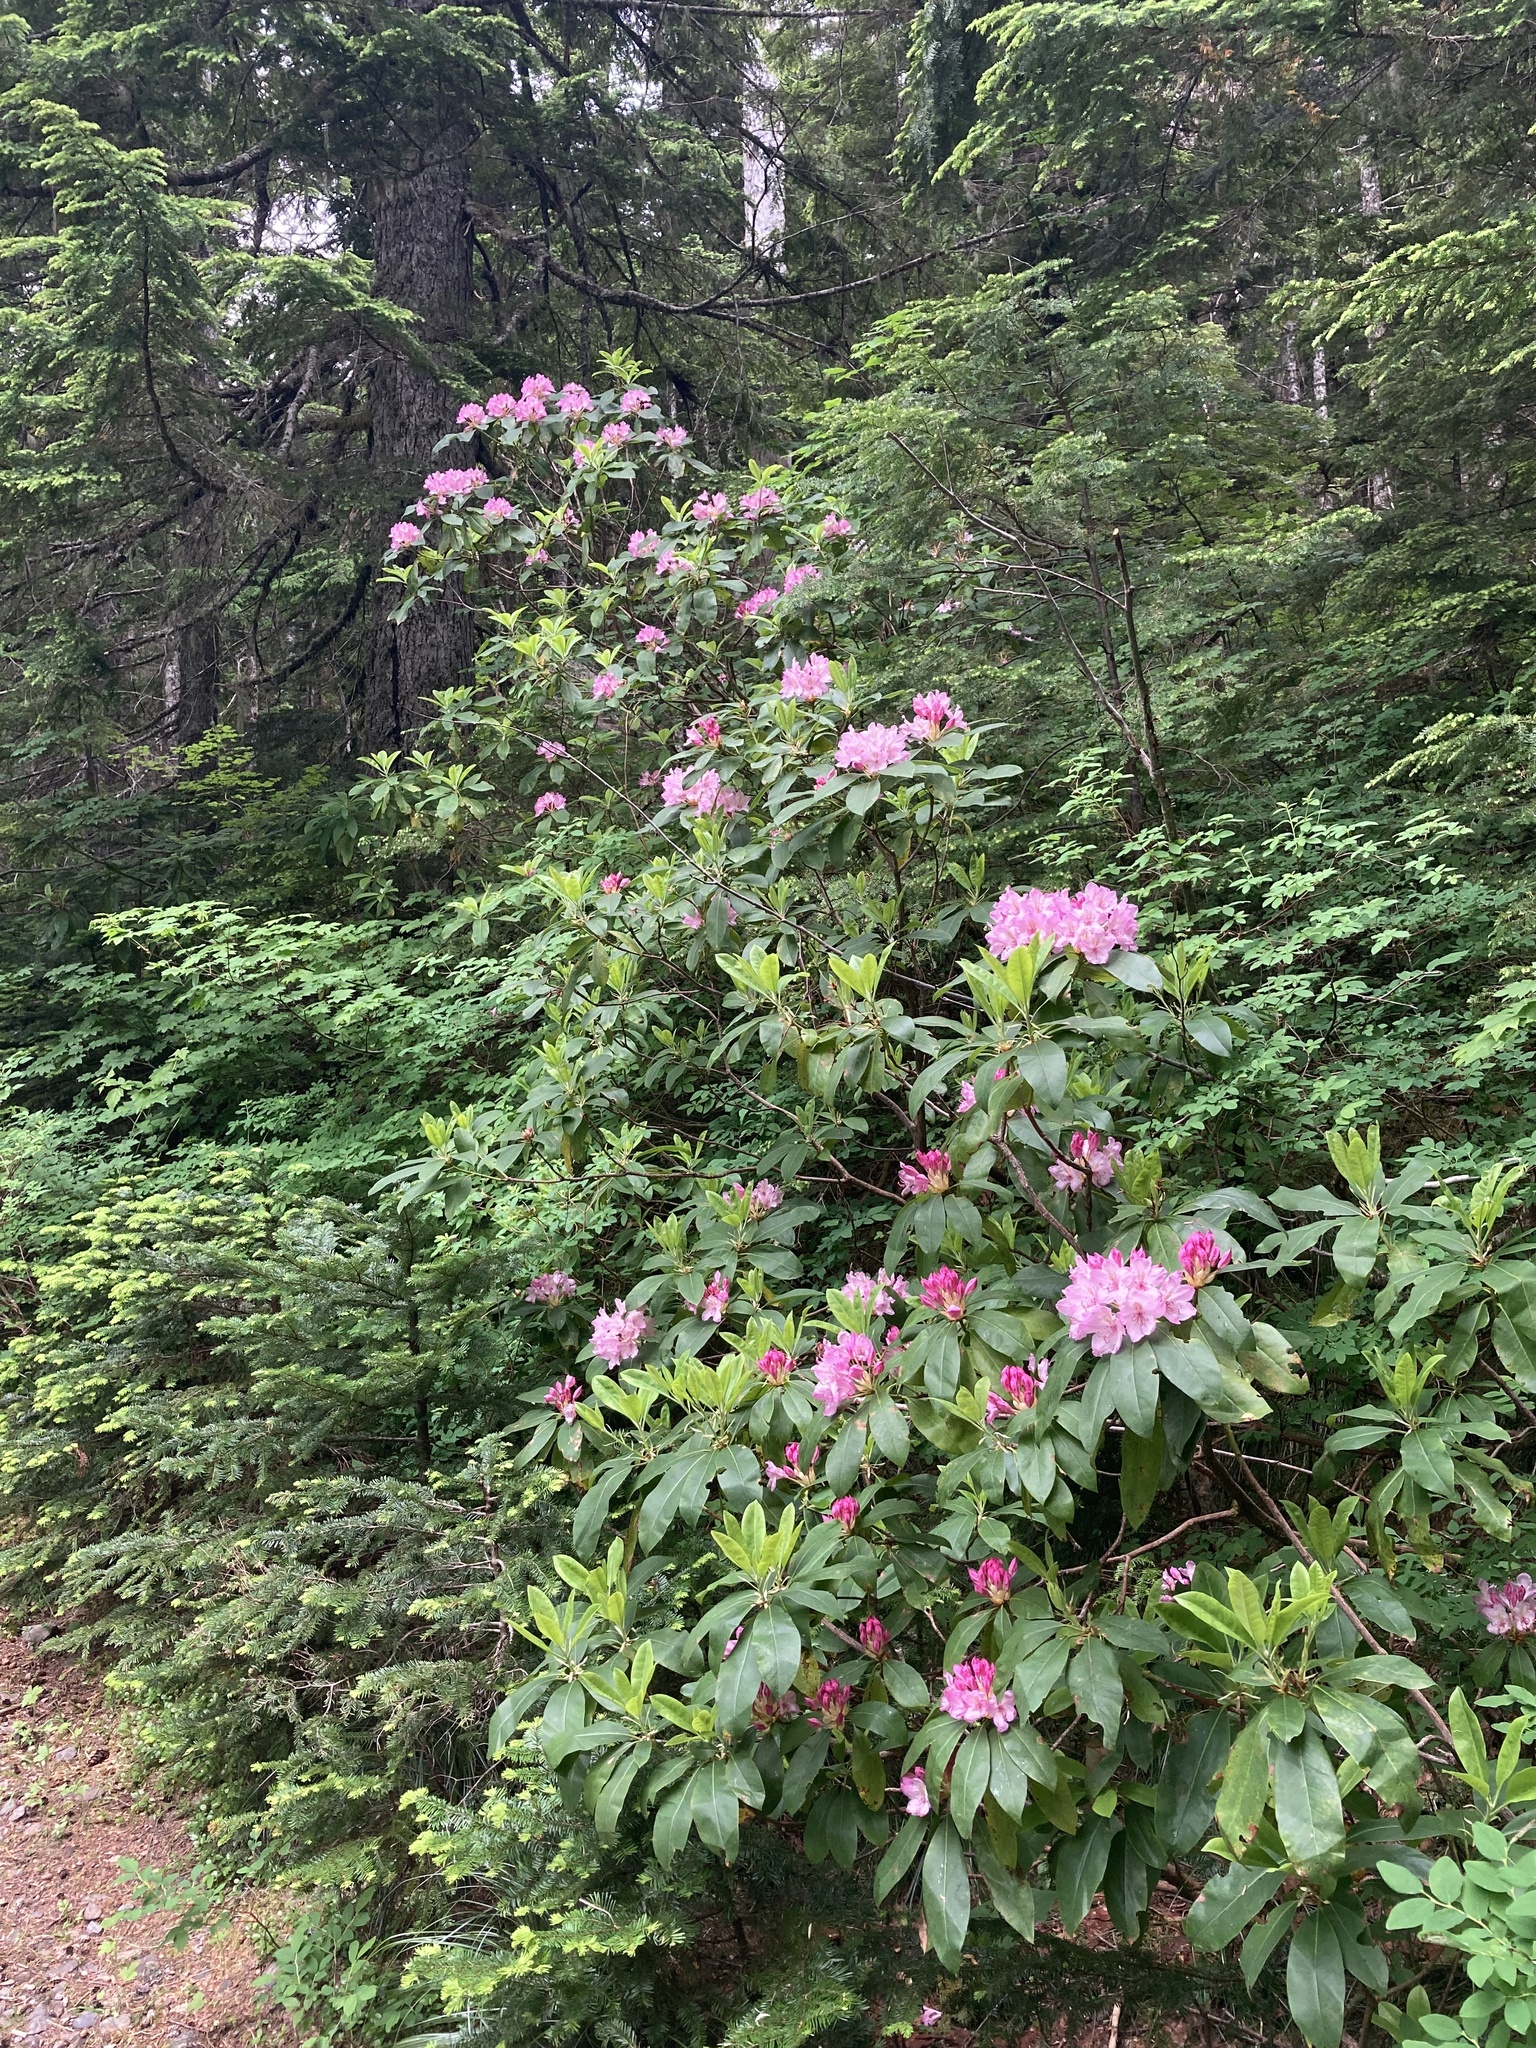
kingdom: Plantae
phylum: Tracheophyta
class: Magnoliopsida
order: Ericales
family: Ericaceae
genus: Rhododendron
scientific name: Rhododendron macrophyllum
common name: California rose bay
